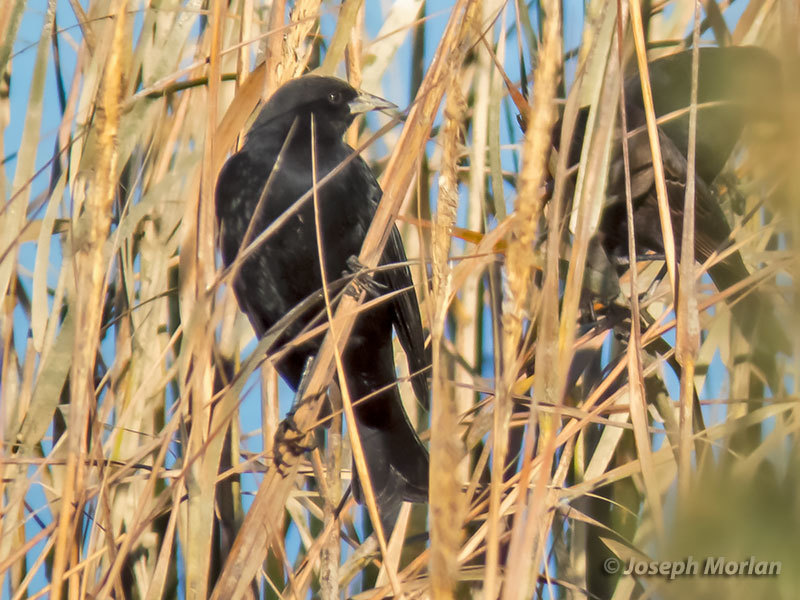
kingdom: Animalia
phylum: Chordata
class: Aves
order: Passeriformes
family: Icteridae
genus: Agelaius
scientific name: Agelaius phoeniceus
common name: Red-winged blackbird
